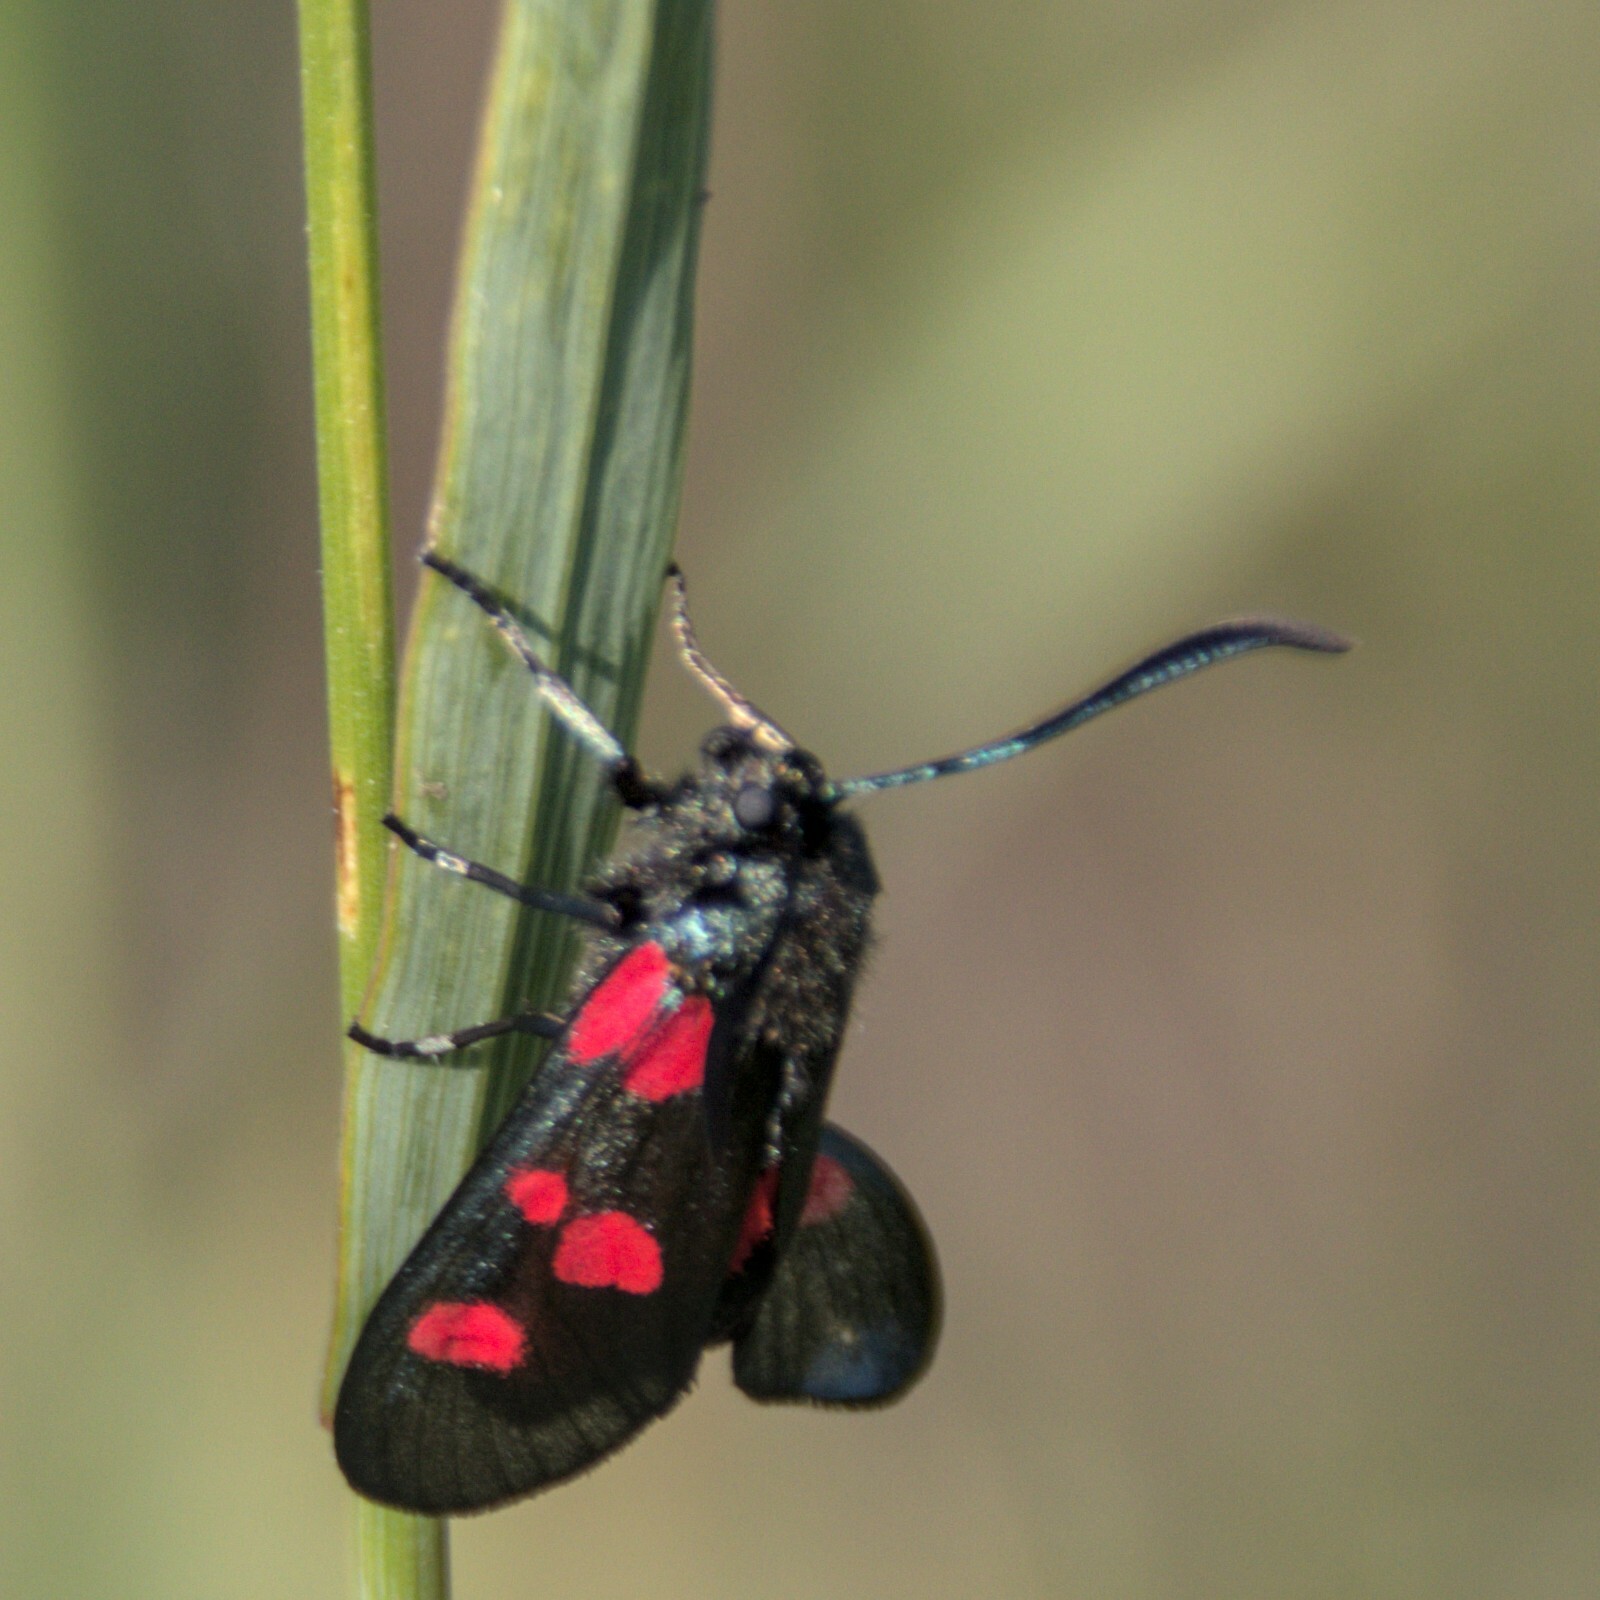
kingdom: Animalia
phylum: Arthropoda
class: Insecta
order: Lepidoptera
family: Zygaenidae
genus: Zygaena
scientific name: Zygaena viciae
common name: New forest burnet
